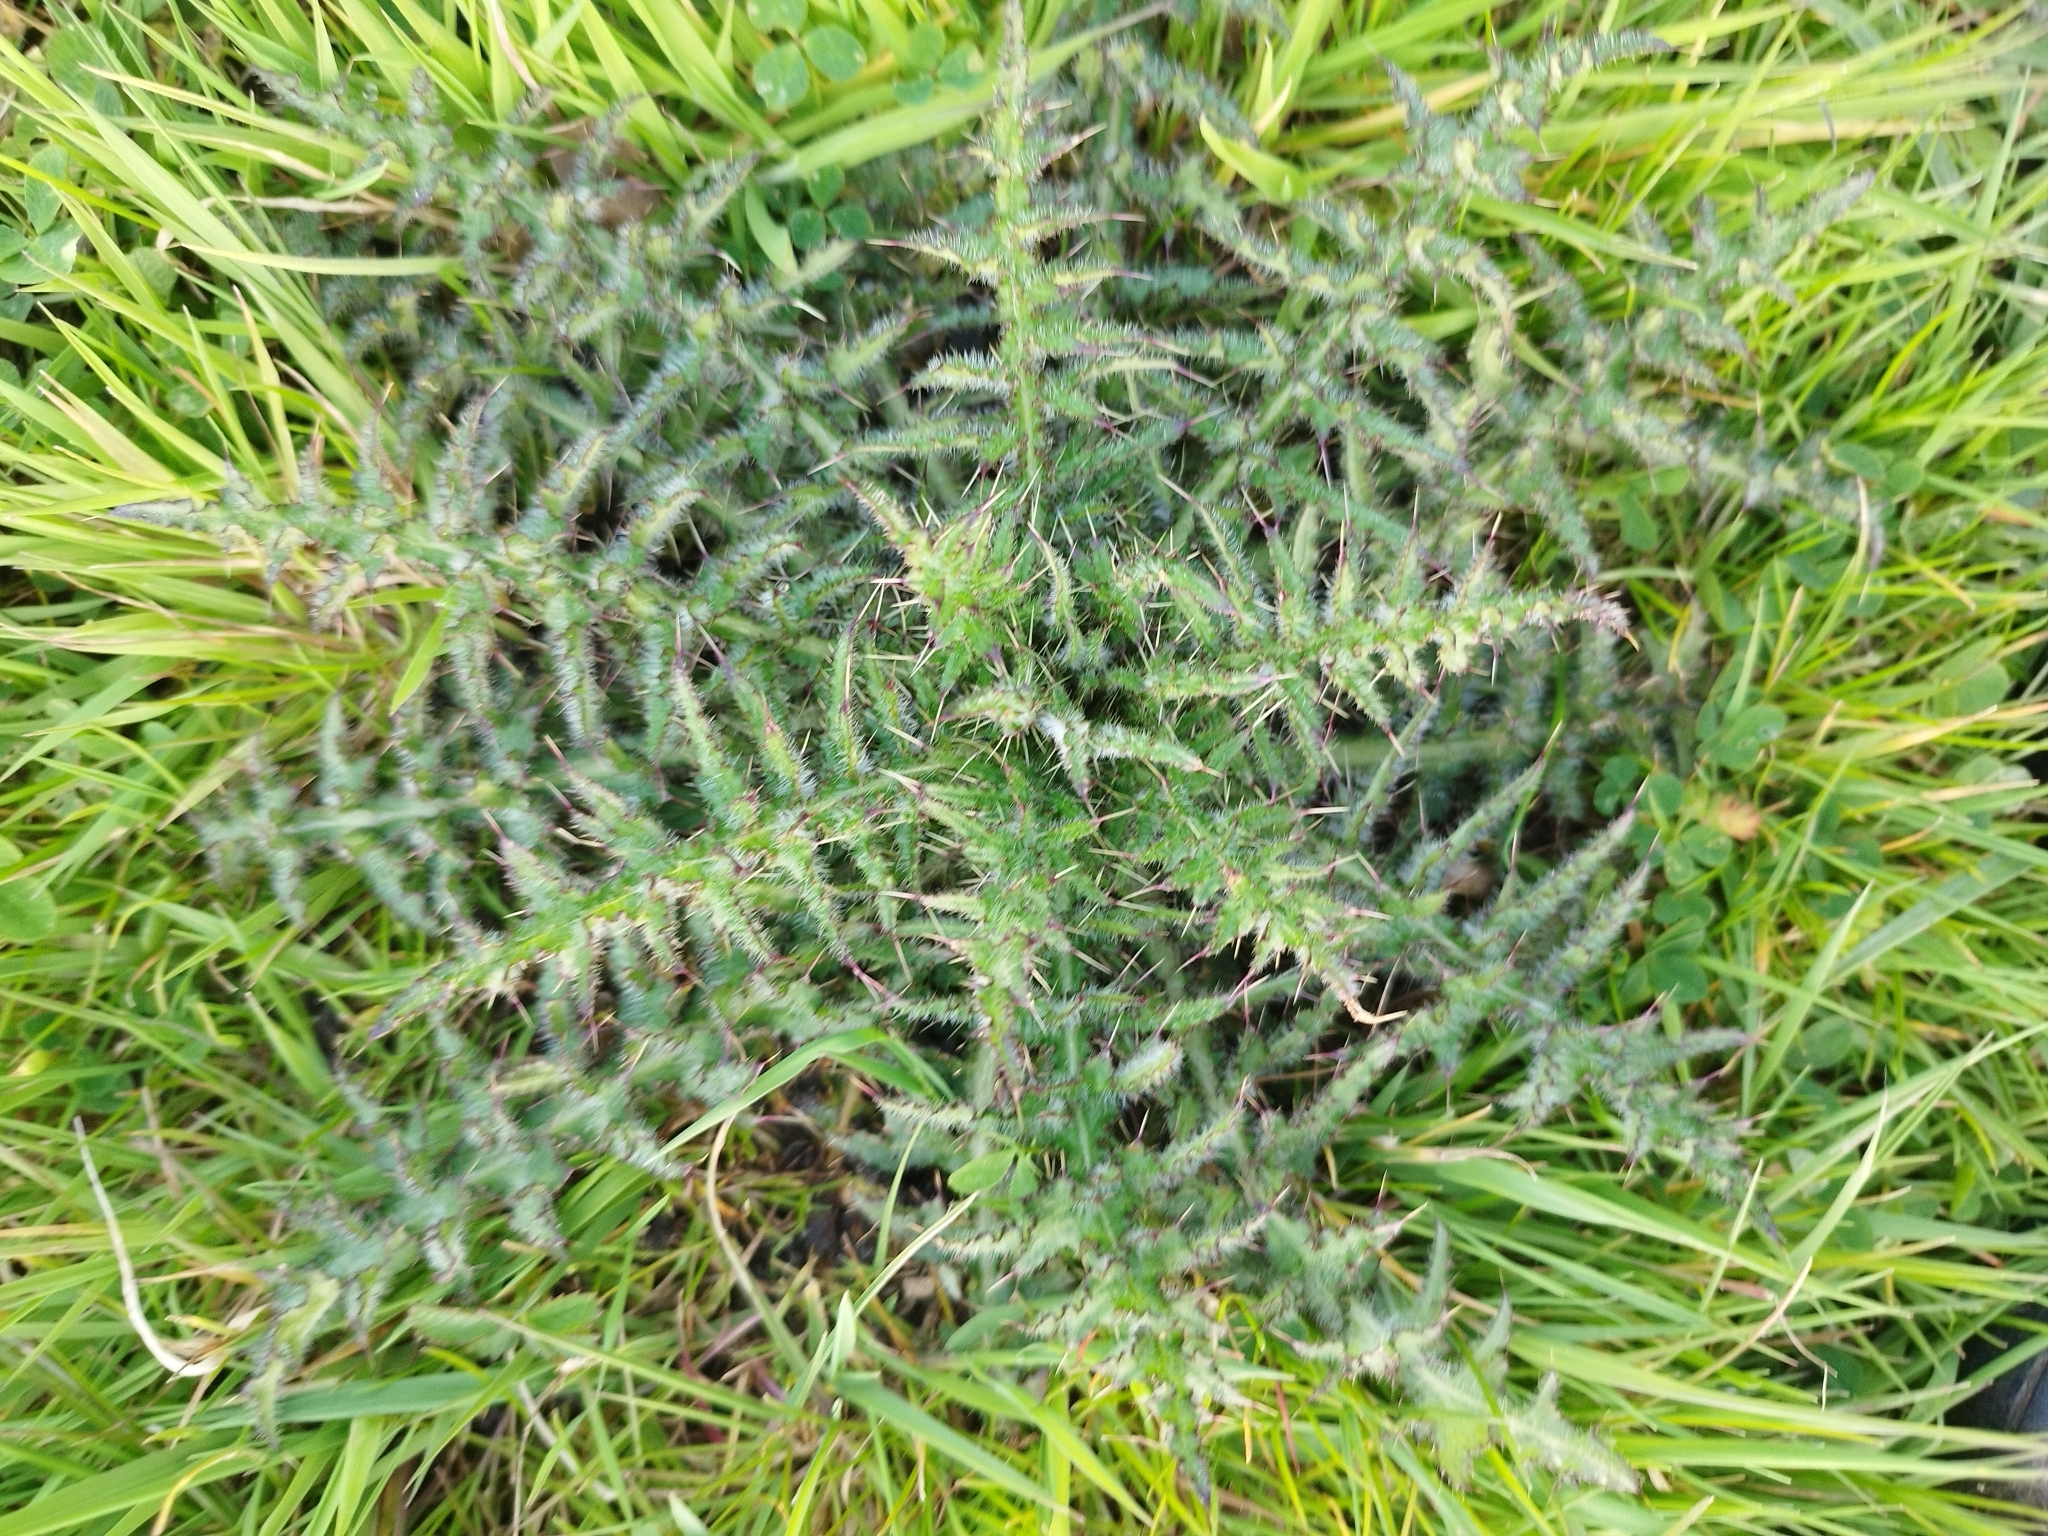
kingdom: Plantae
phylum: Tracheophyta
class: Magnoliopsida
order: Asterales
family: Asteraceae
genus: Cirsium
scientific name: Cirsium palustre
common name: Marsh thistle
